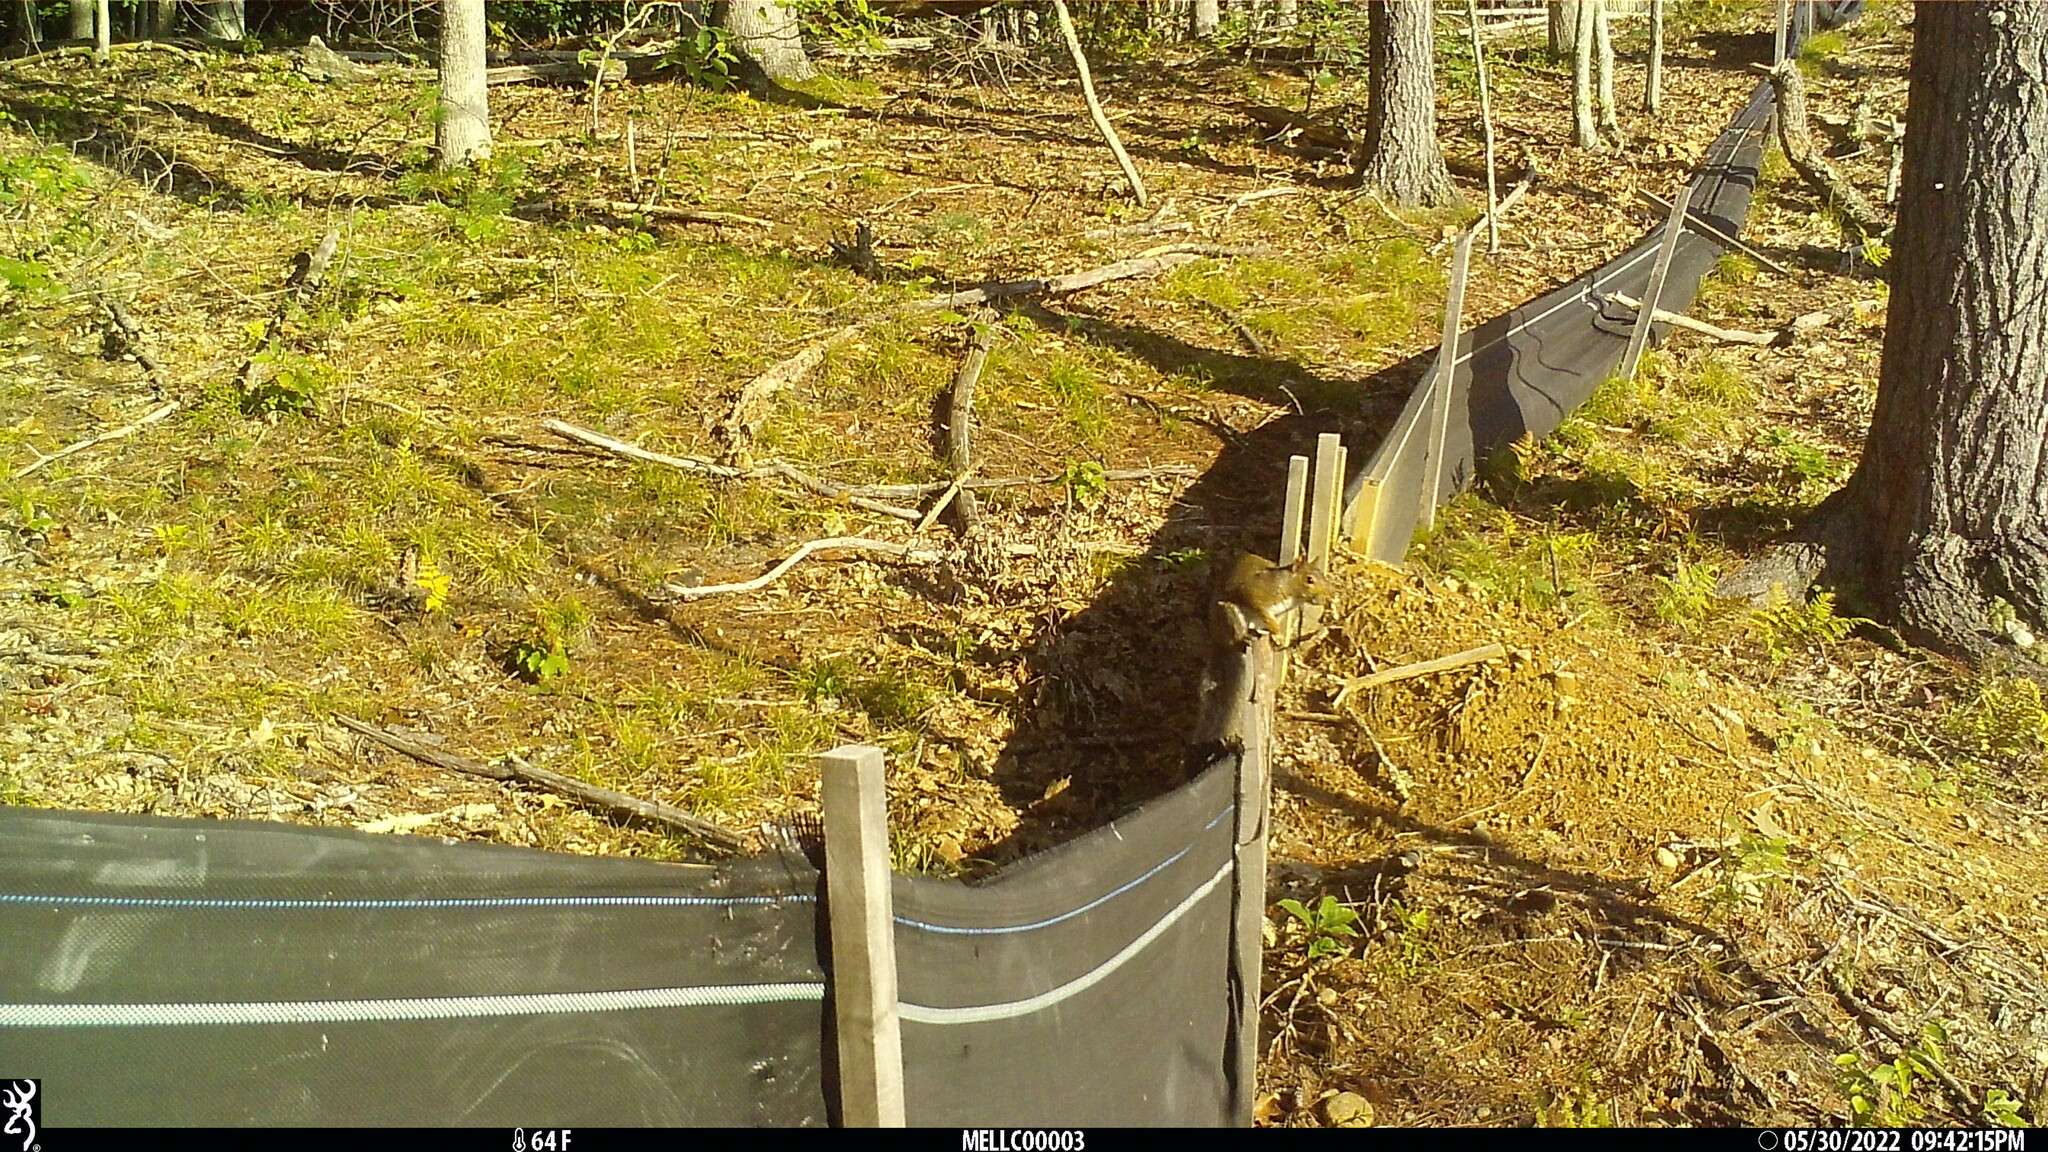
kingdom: Animalia
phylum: Chordata
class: Mammalia
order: Rodentia
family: Sciuridae
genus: Sciurus
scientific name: Sciurus carolinensis
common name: Eastern gray squirrel
